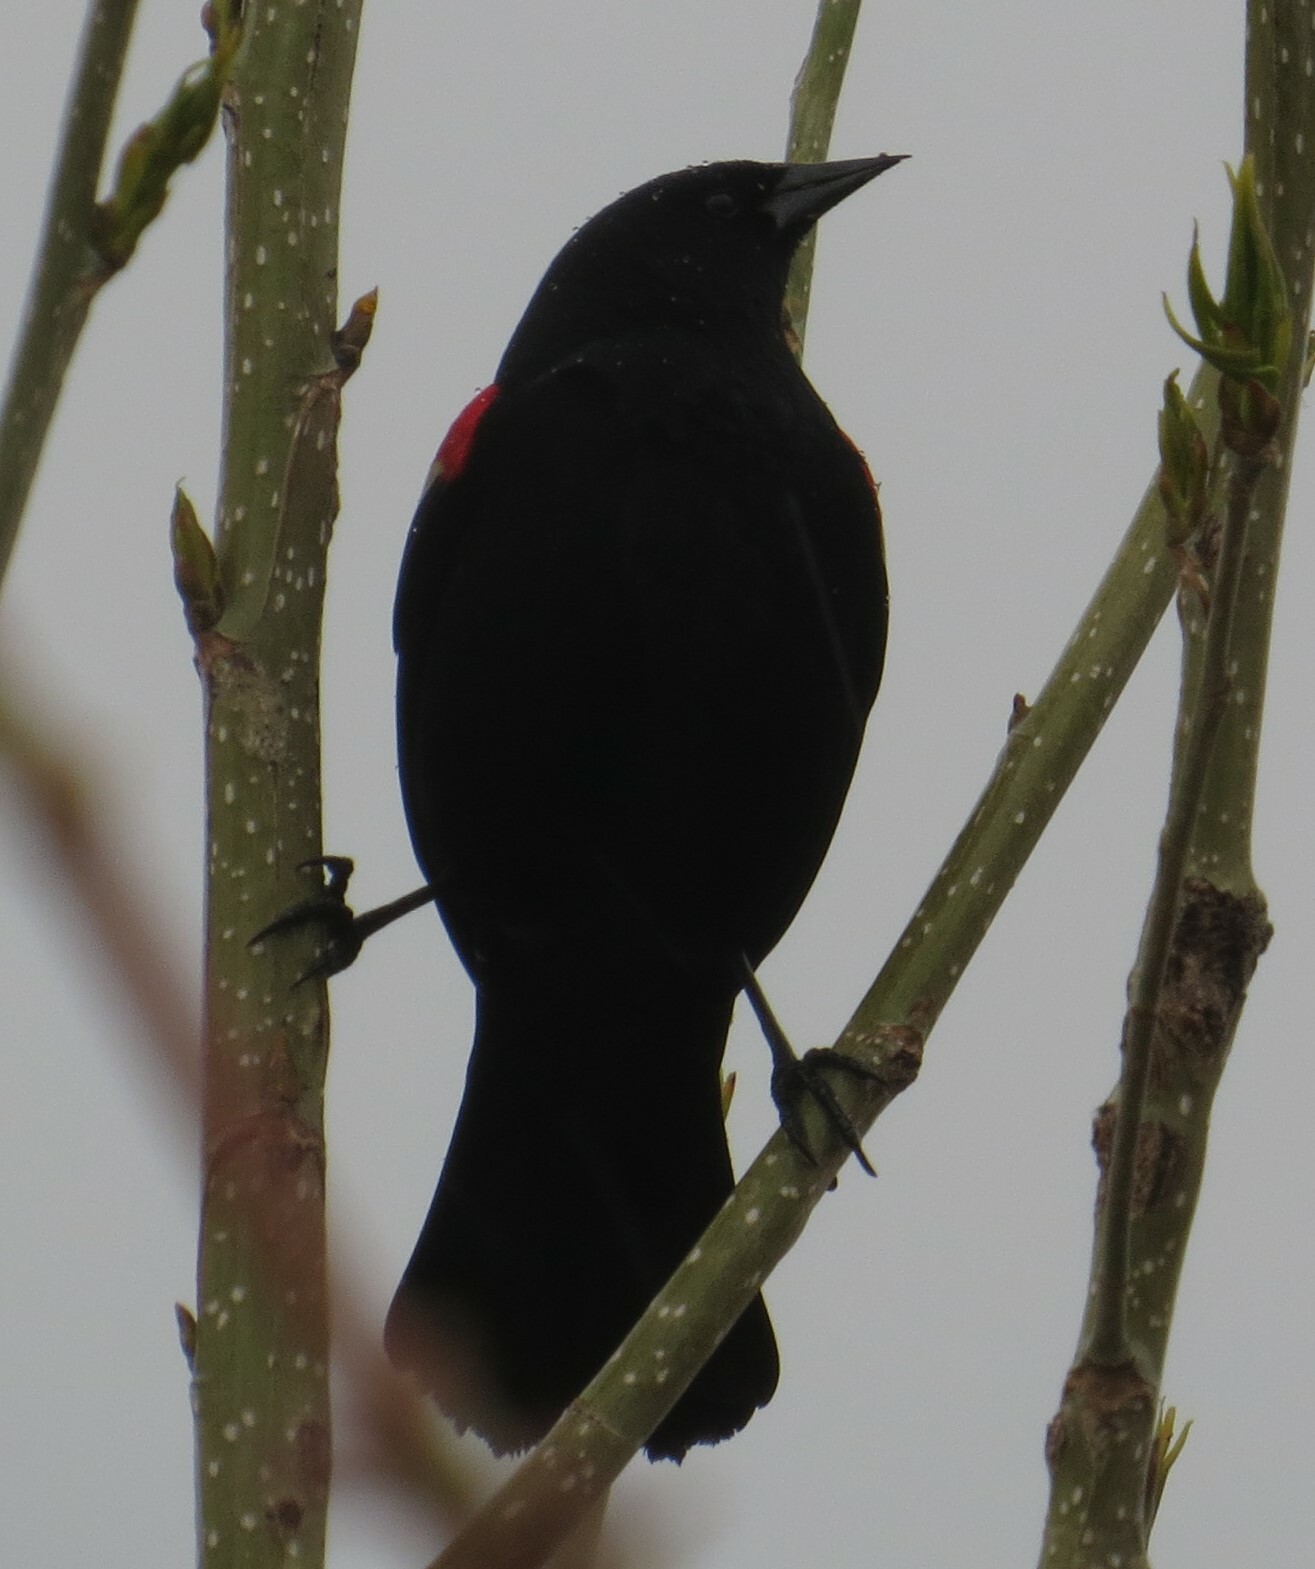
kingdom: Animalia
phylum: Chordata
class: Aves
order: Passeriformes
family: Icteridae
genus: Agelaius
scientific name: Agelaius phoeniceus
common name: Red-winged blackbird
